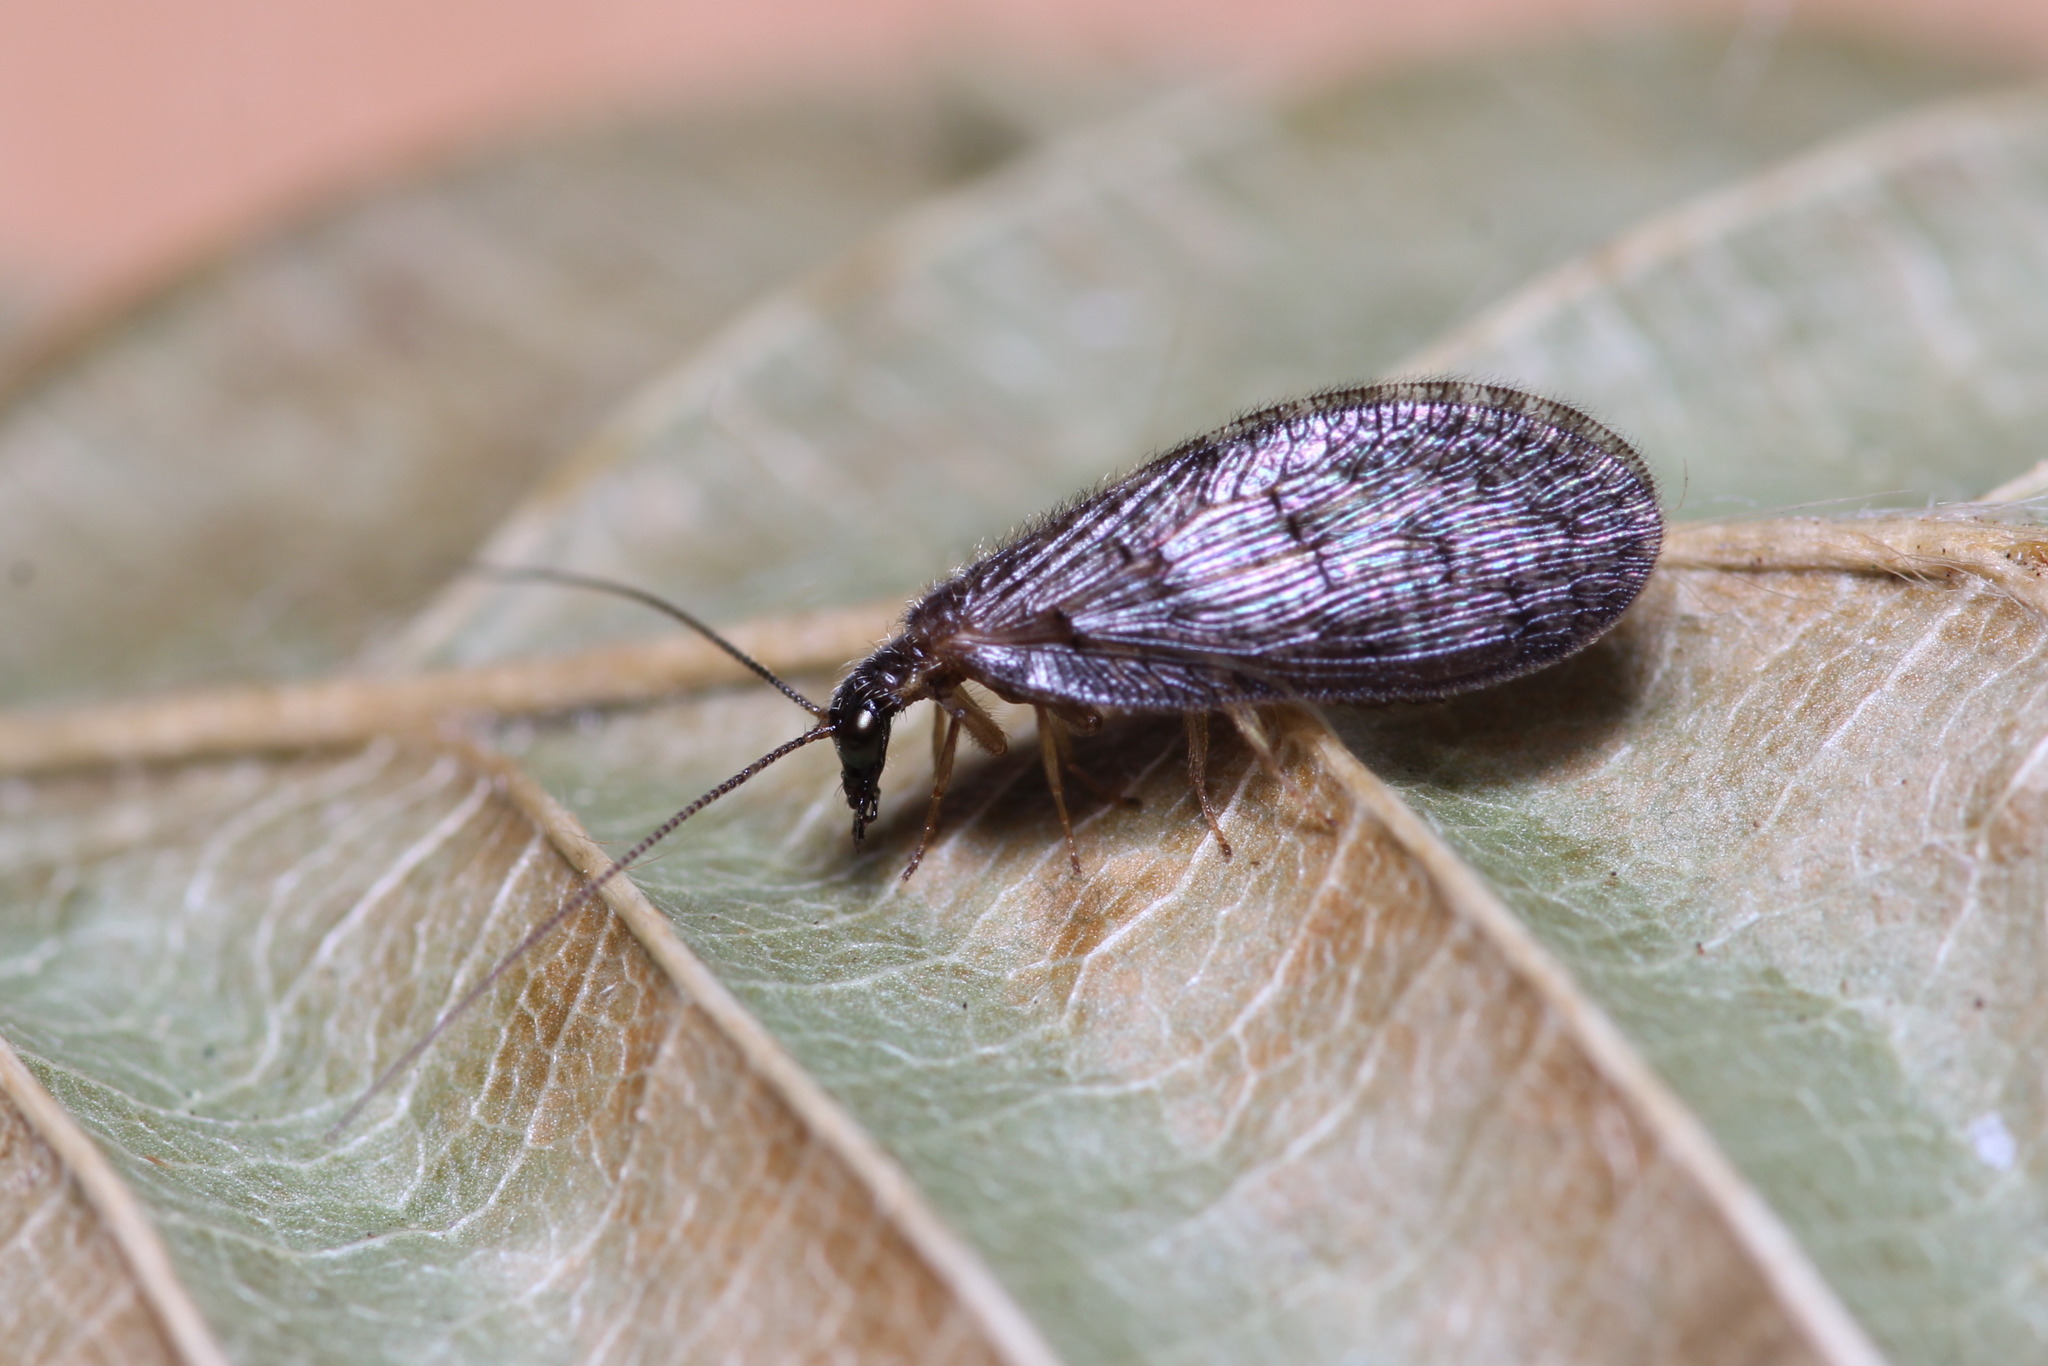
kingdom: Animalia
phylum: Arthropoda
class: Insecta
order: Neuroptera
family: Hemerobiidae
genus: Sympherobius
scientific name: Sympherobius pygmaeus
